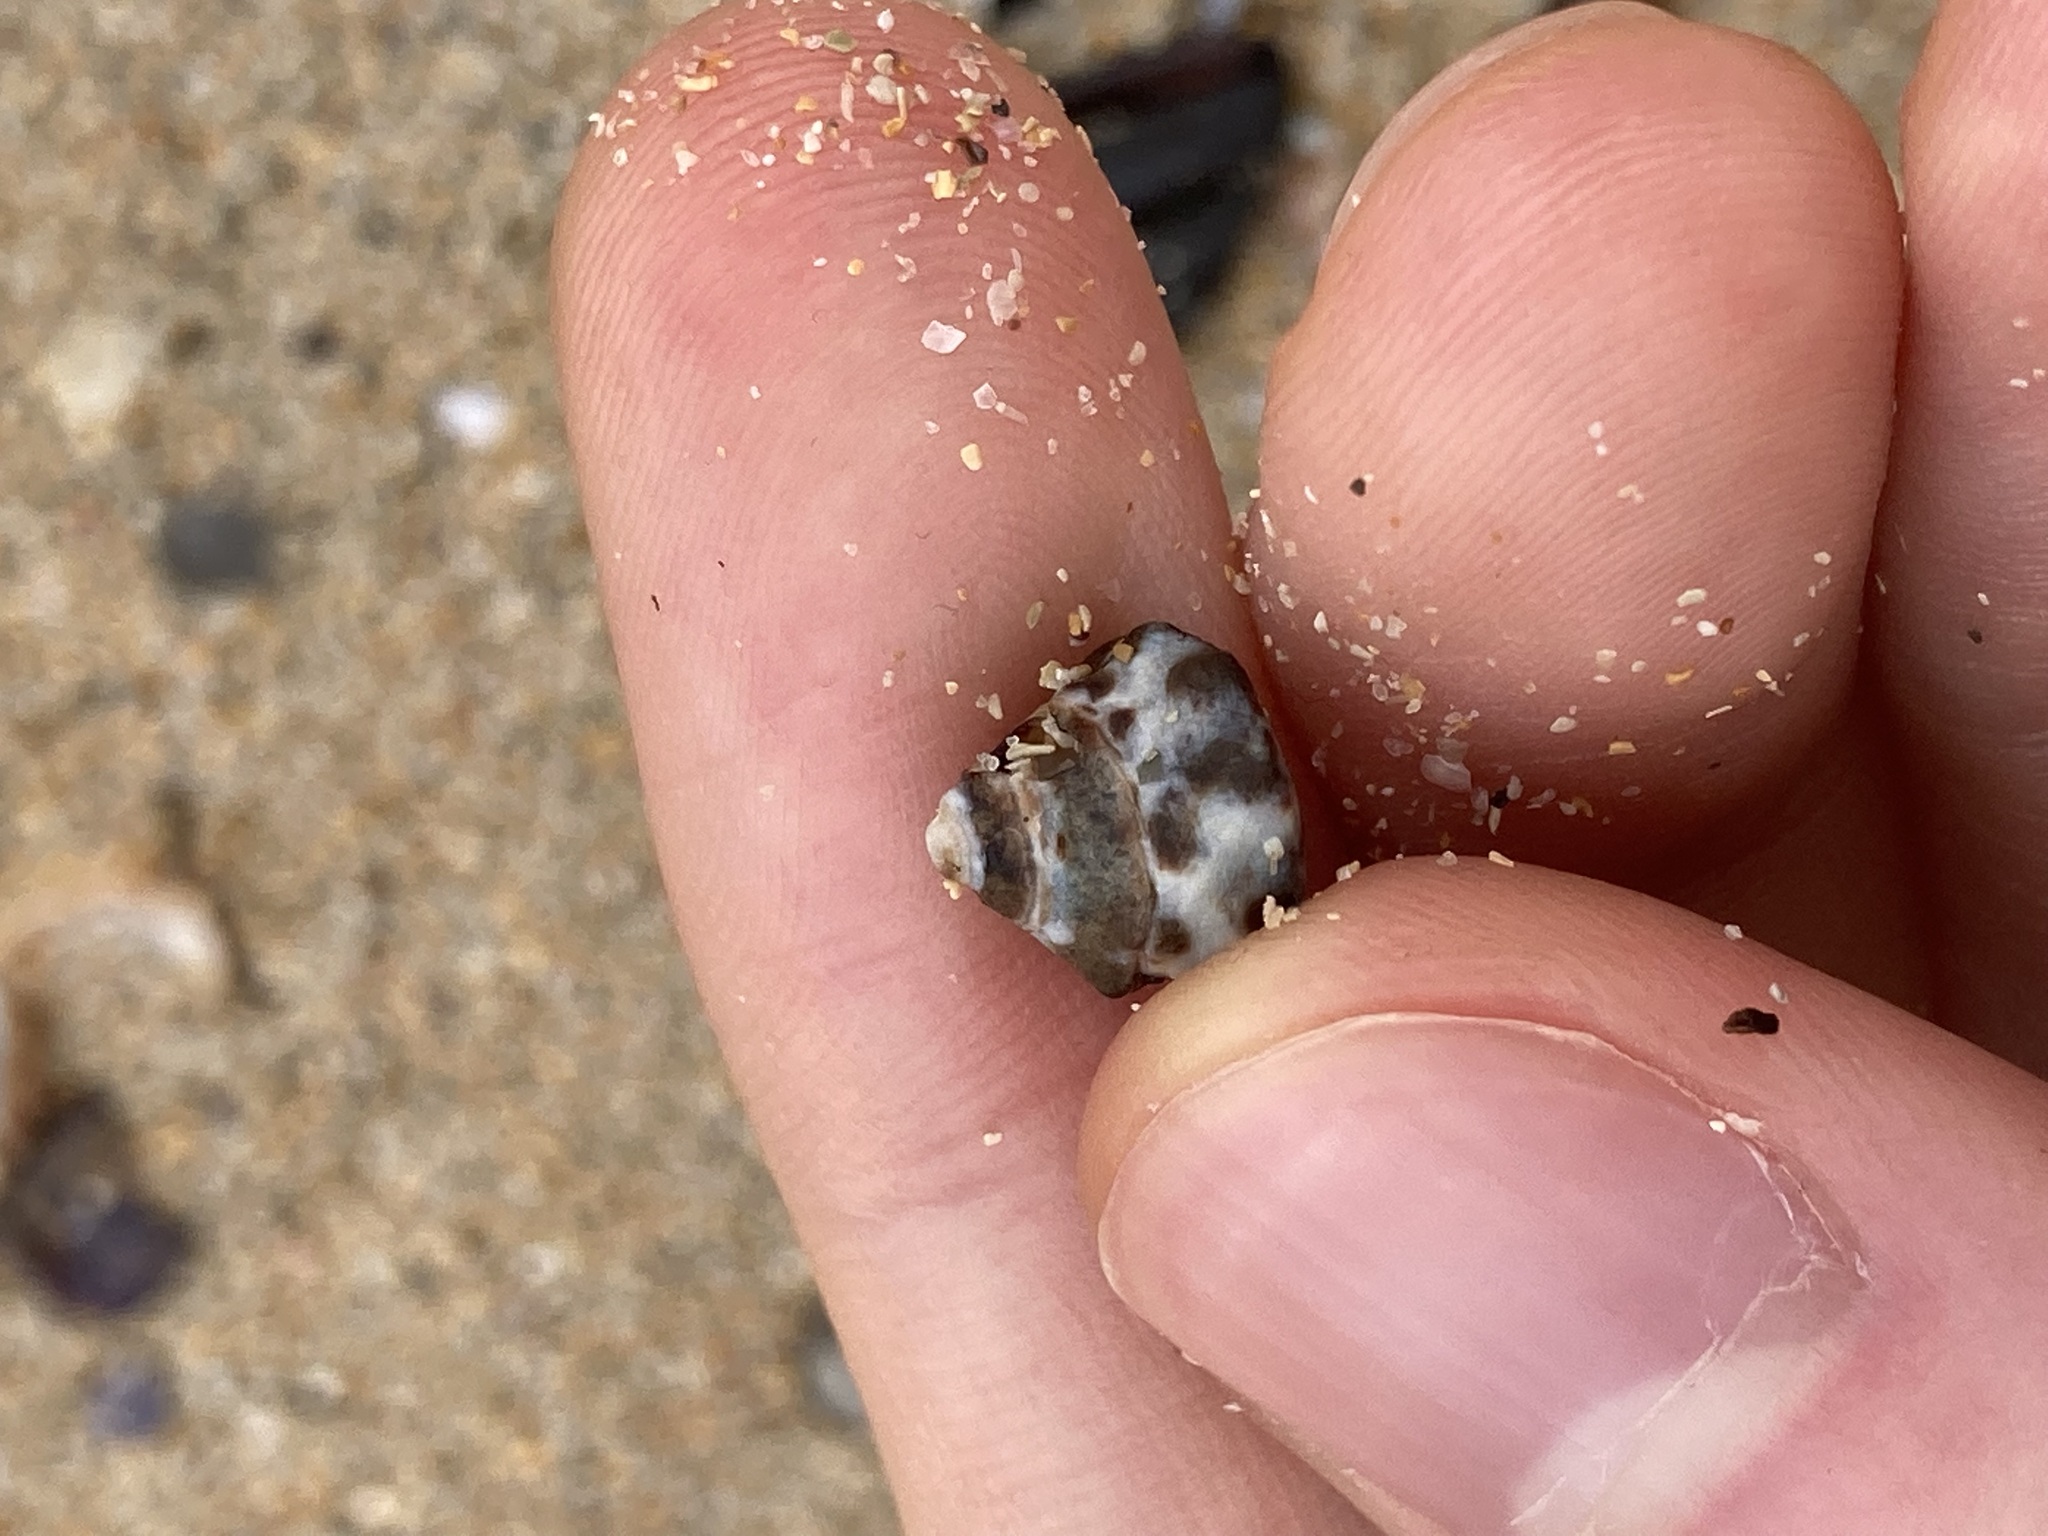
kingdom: Animalia
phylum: Mollusca
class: Gastropoda
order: Littorinimorpha
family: Littorinidae
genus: Bembicium
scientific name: Bembicium auratum
